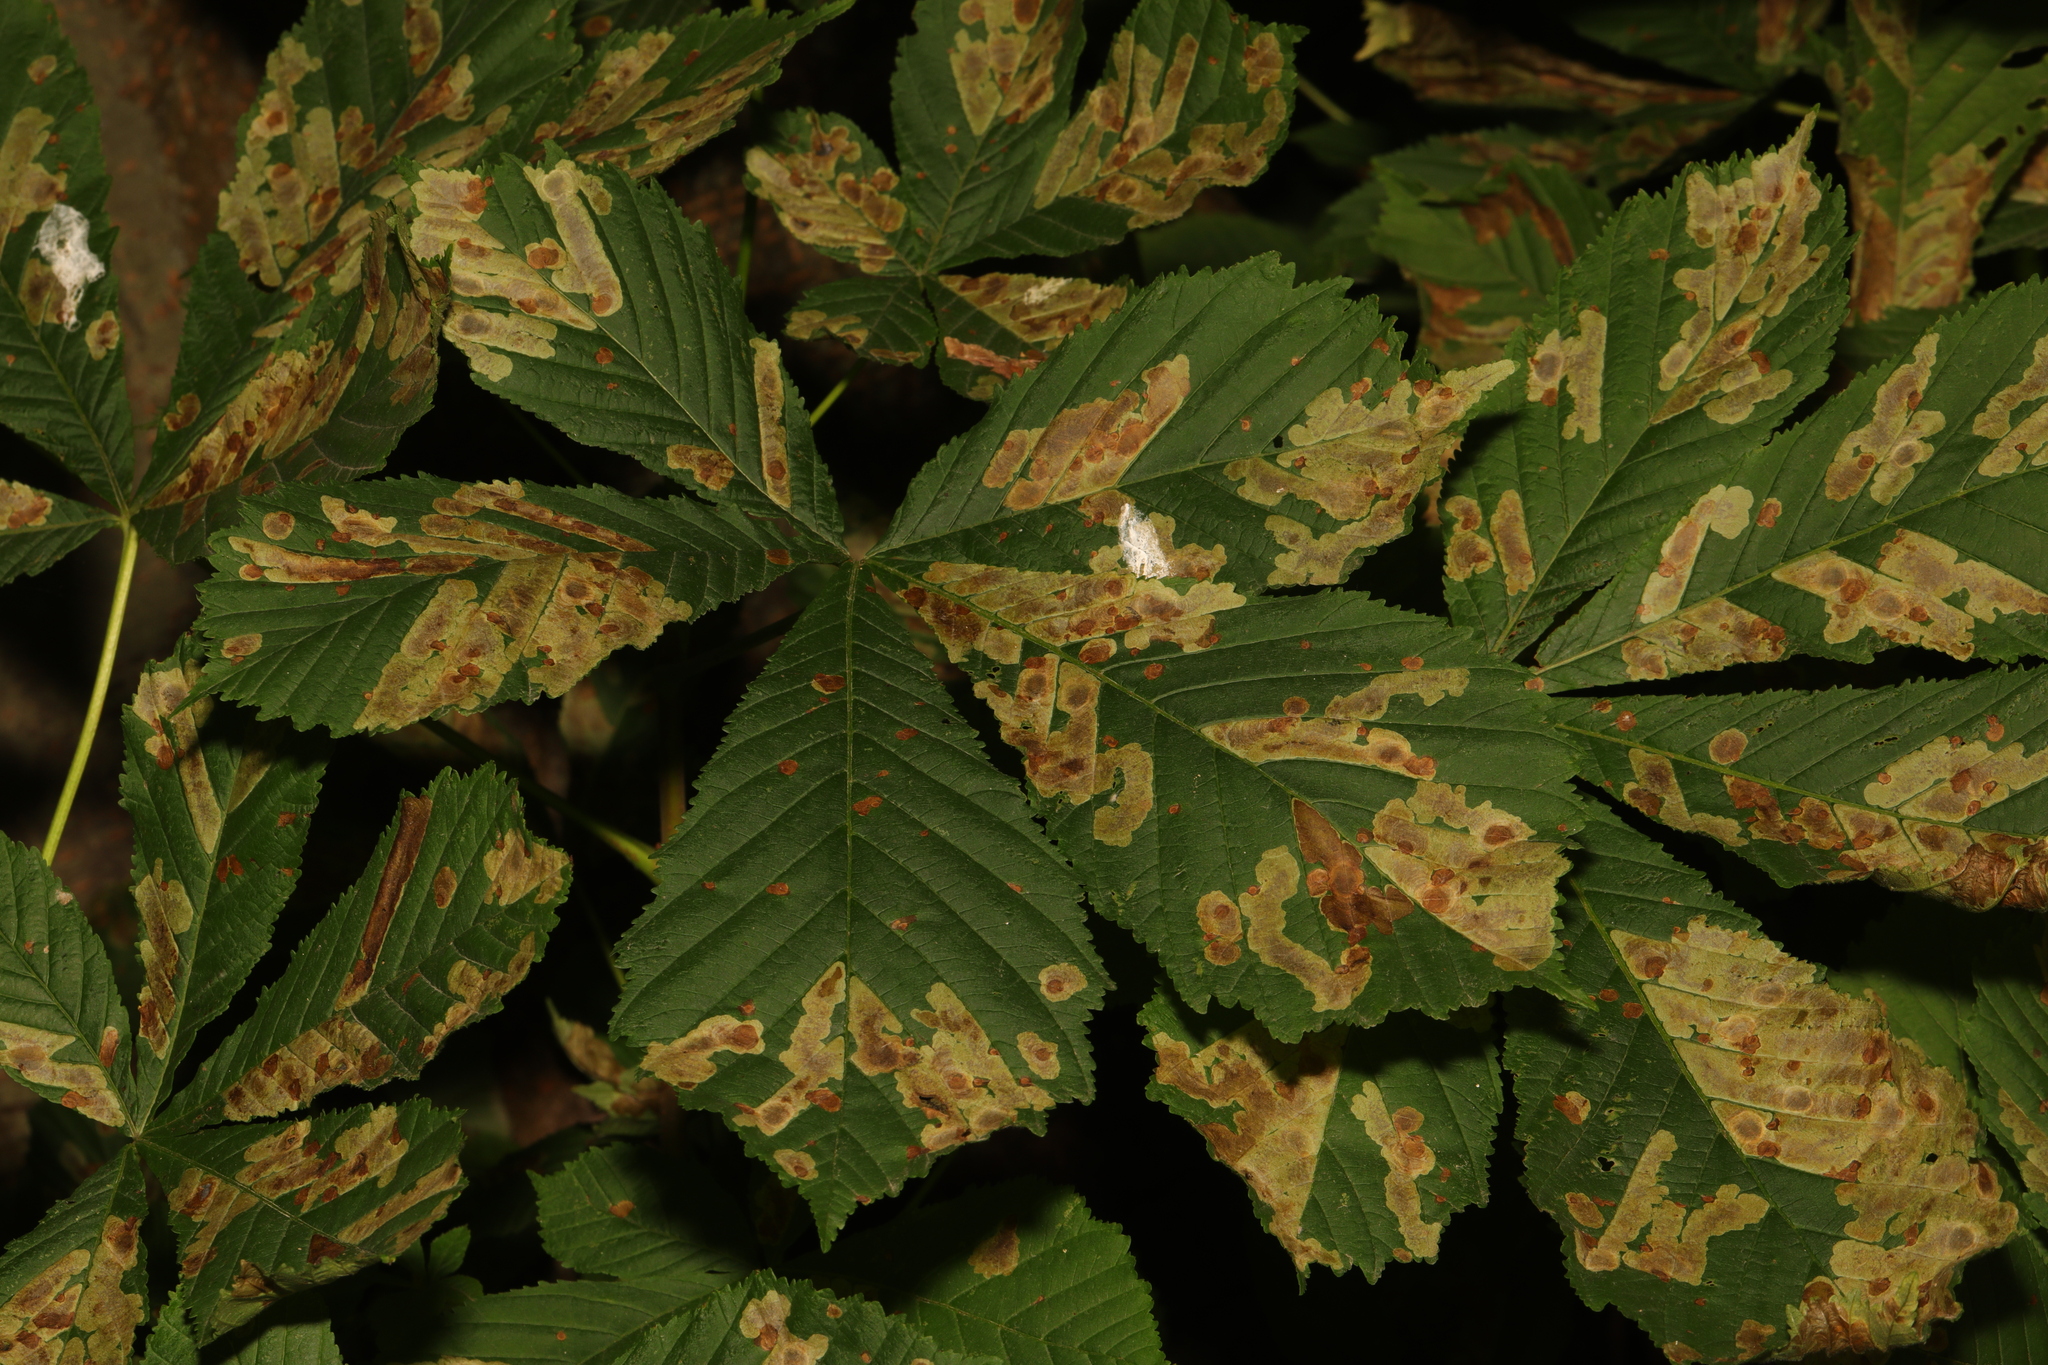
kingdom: Plantae
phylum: Tracheophyta
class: Magnoliopsida
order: Sapindales
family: Sapindaceae
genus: Aesculus
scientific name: Aesculus hippocastanum
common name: Horse-chestnut
